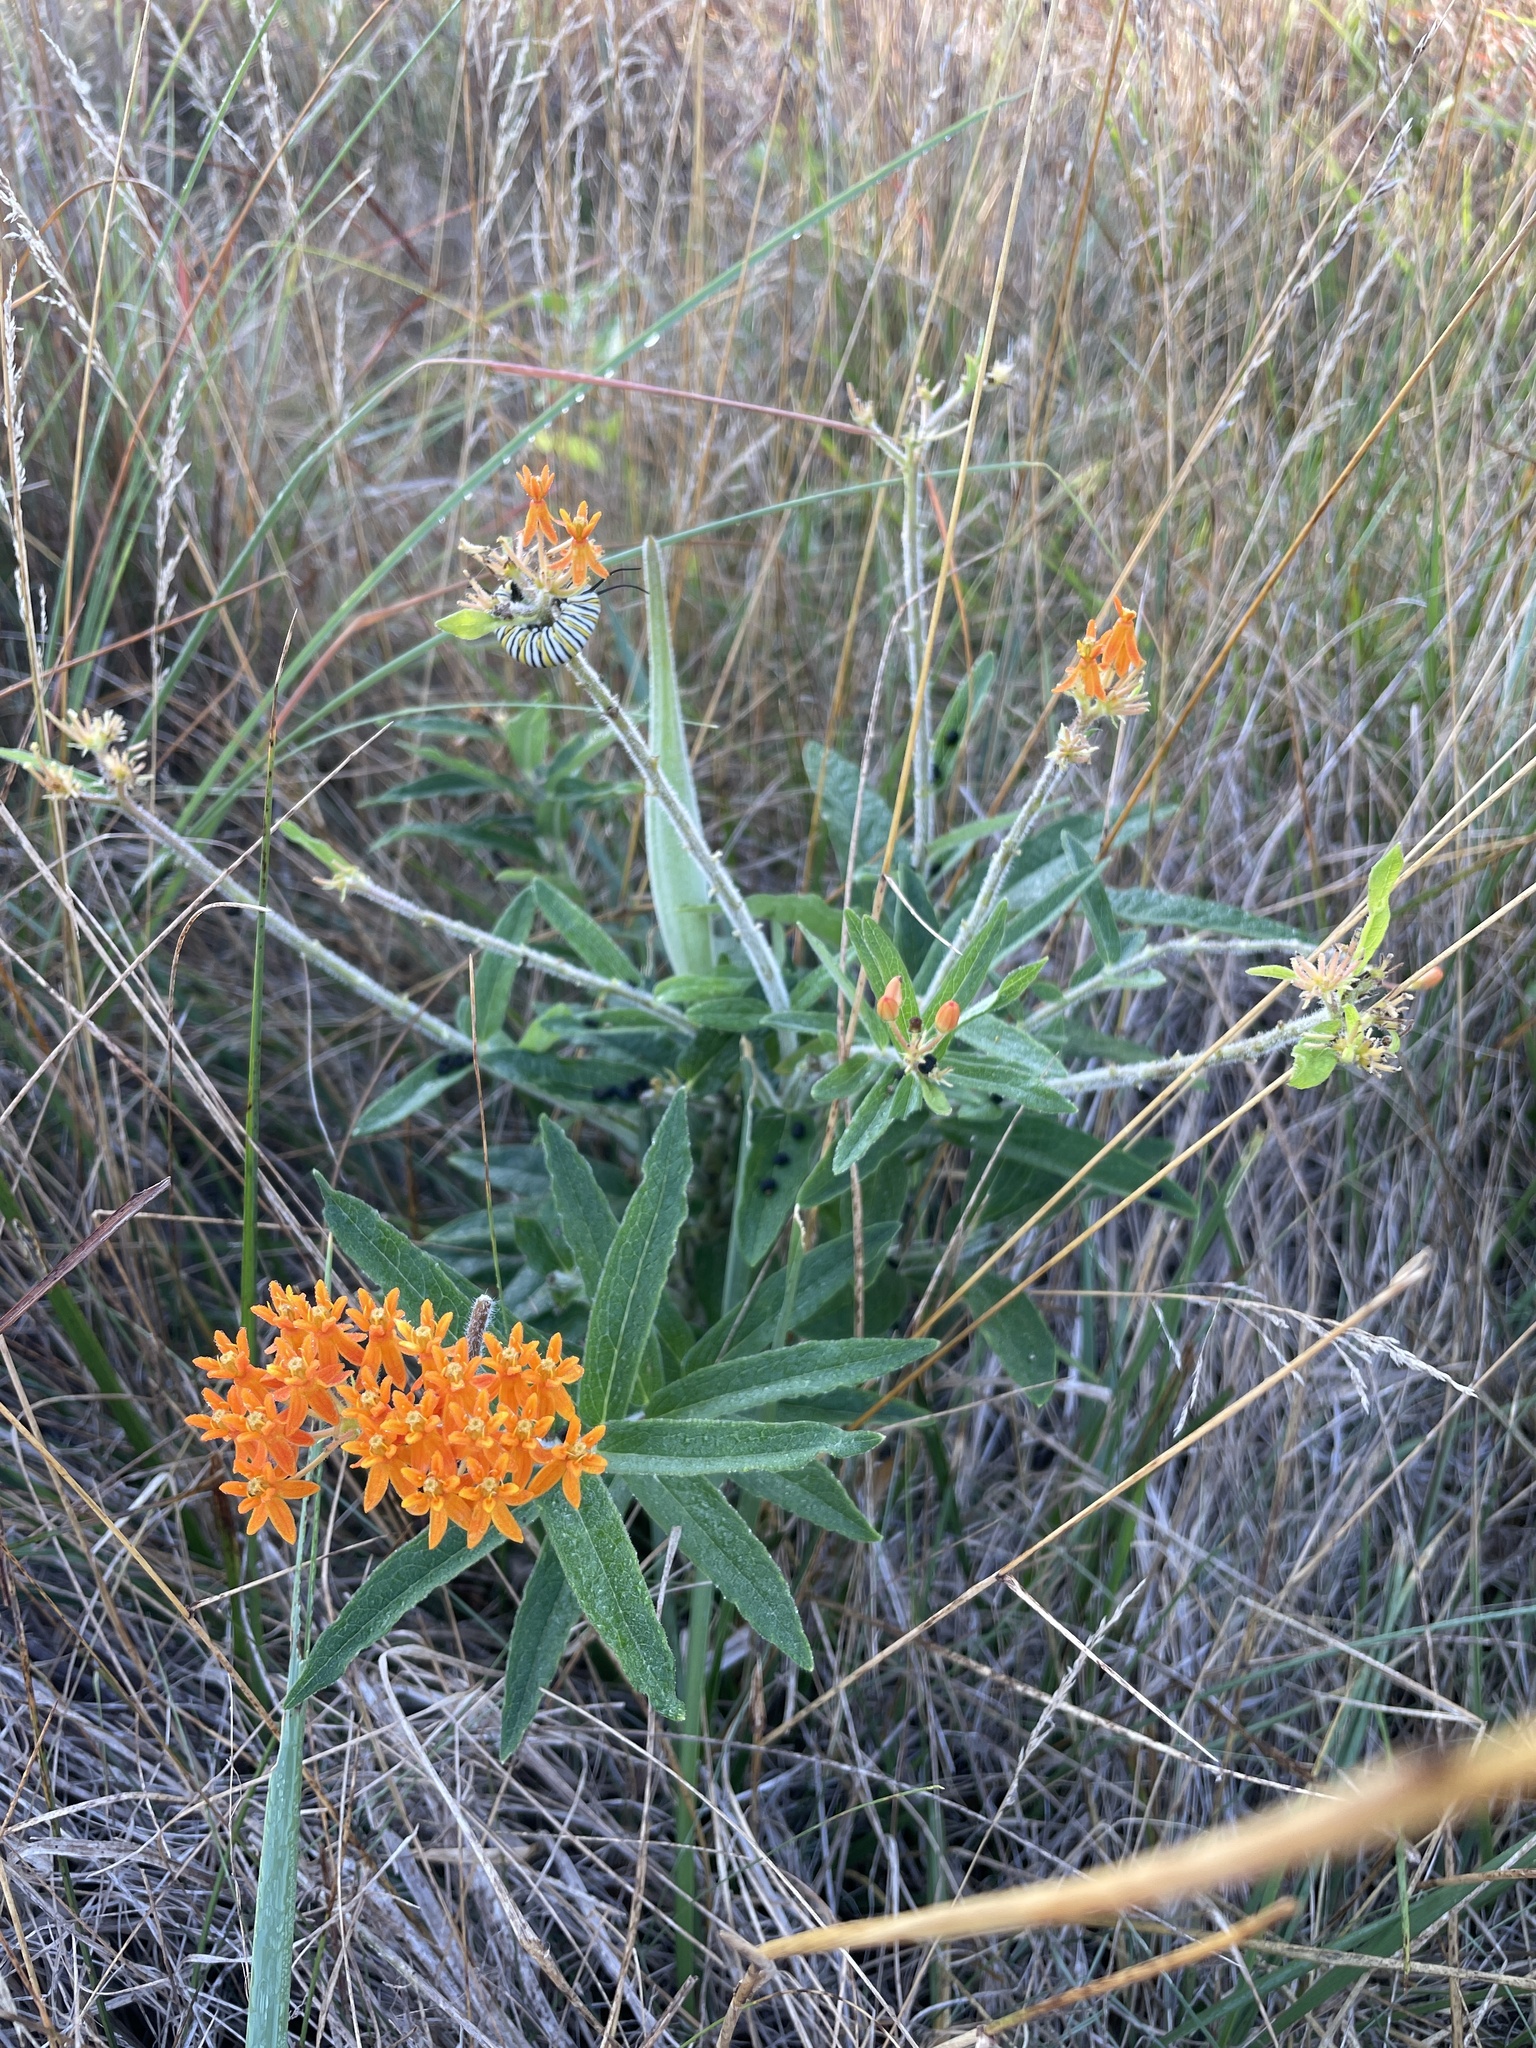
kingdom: Plantae
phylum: Tracheophyta
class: Magnoliopsida
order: Gentianales
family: Apocynaceae
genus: Asclepias
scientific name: Asclepias tuberosa
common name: Butterfly milkweed
